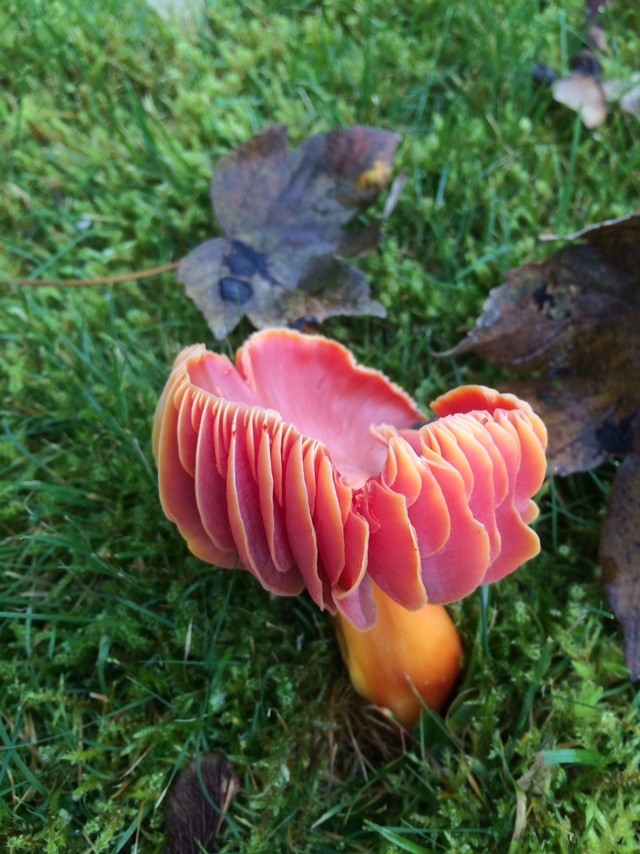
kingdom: Fungi
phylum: Basidiomycota
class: Agaricomycetes
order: Agaricales
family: Hygrophoraceae
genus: Hygrocybe
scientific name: Hygrocybe coccinea
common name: Scarlet hood
